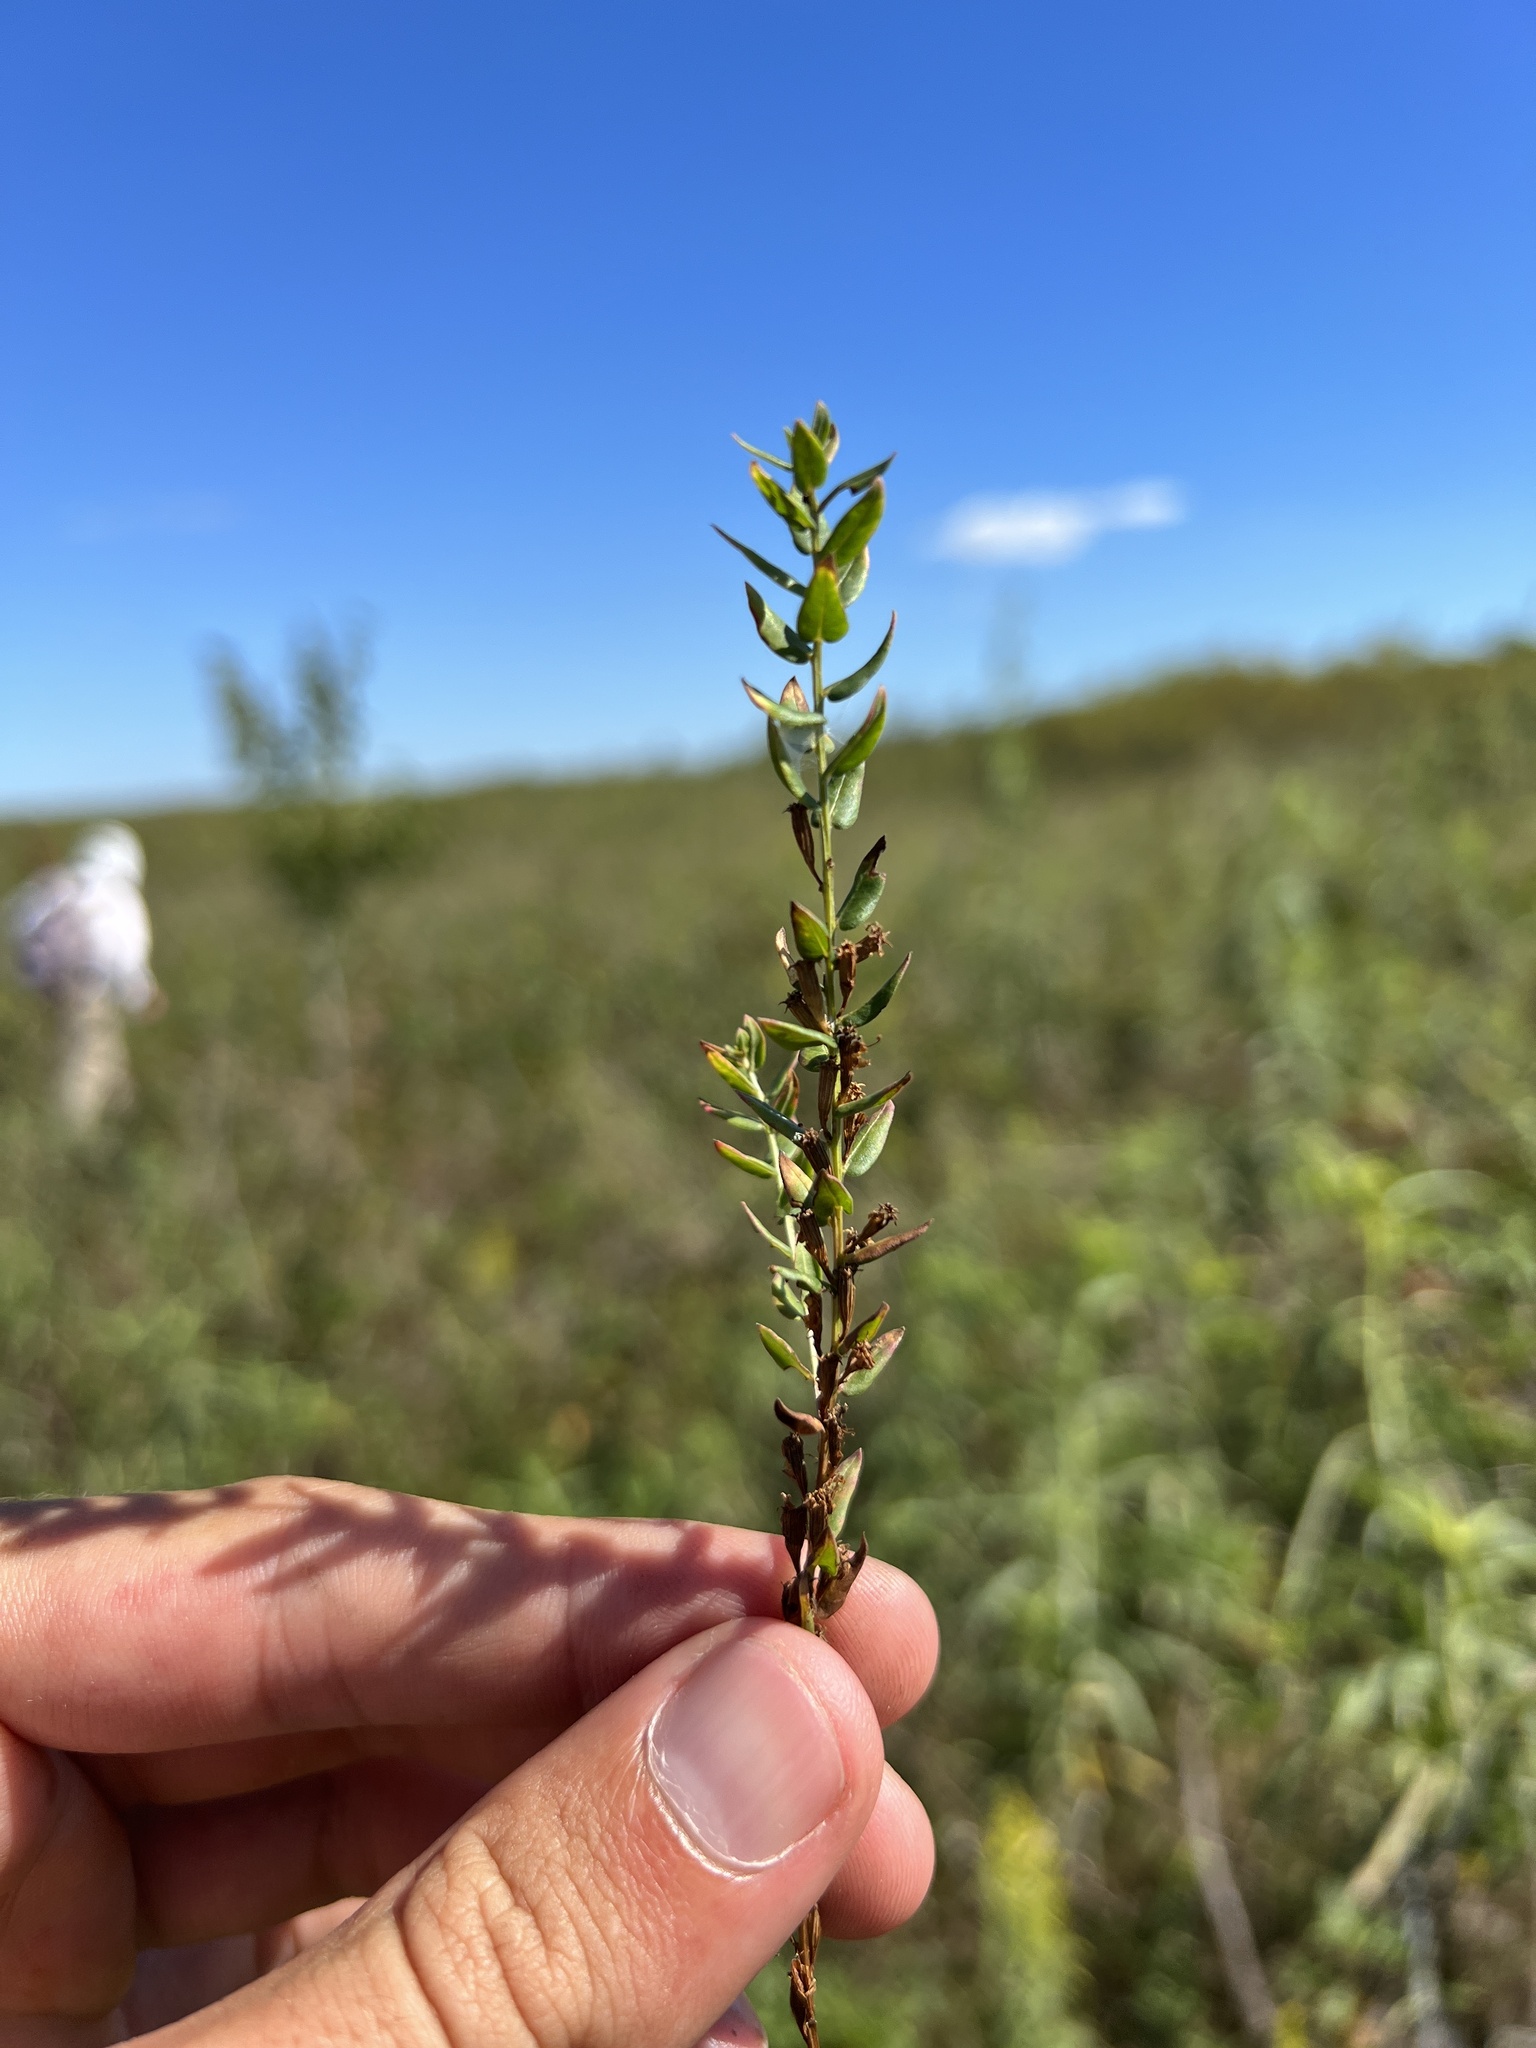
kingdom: Plantae
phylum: Tracheophyta
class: Magnoliopsida
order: Myrtales
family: Lythraceae
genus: Lythrum
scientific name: Lythrum alatum
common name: Winged loosestrife
